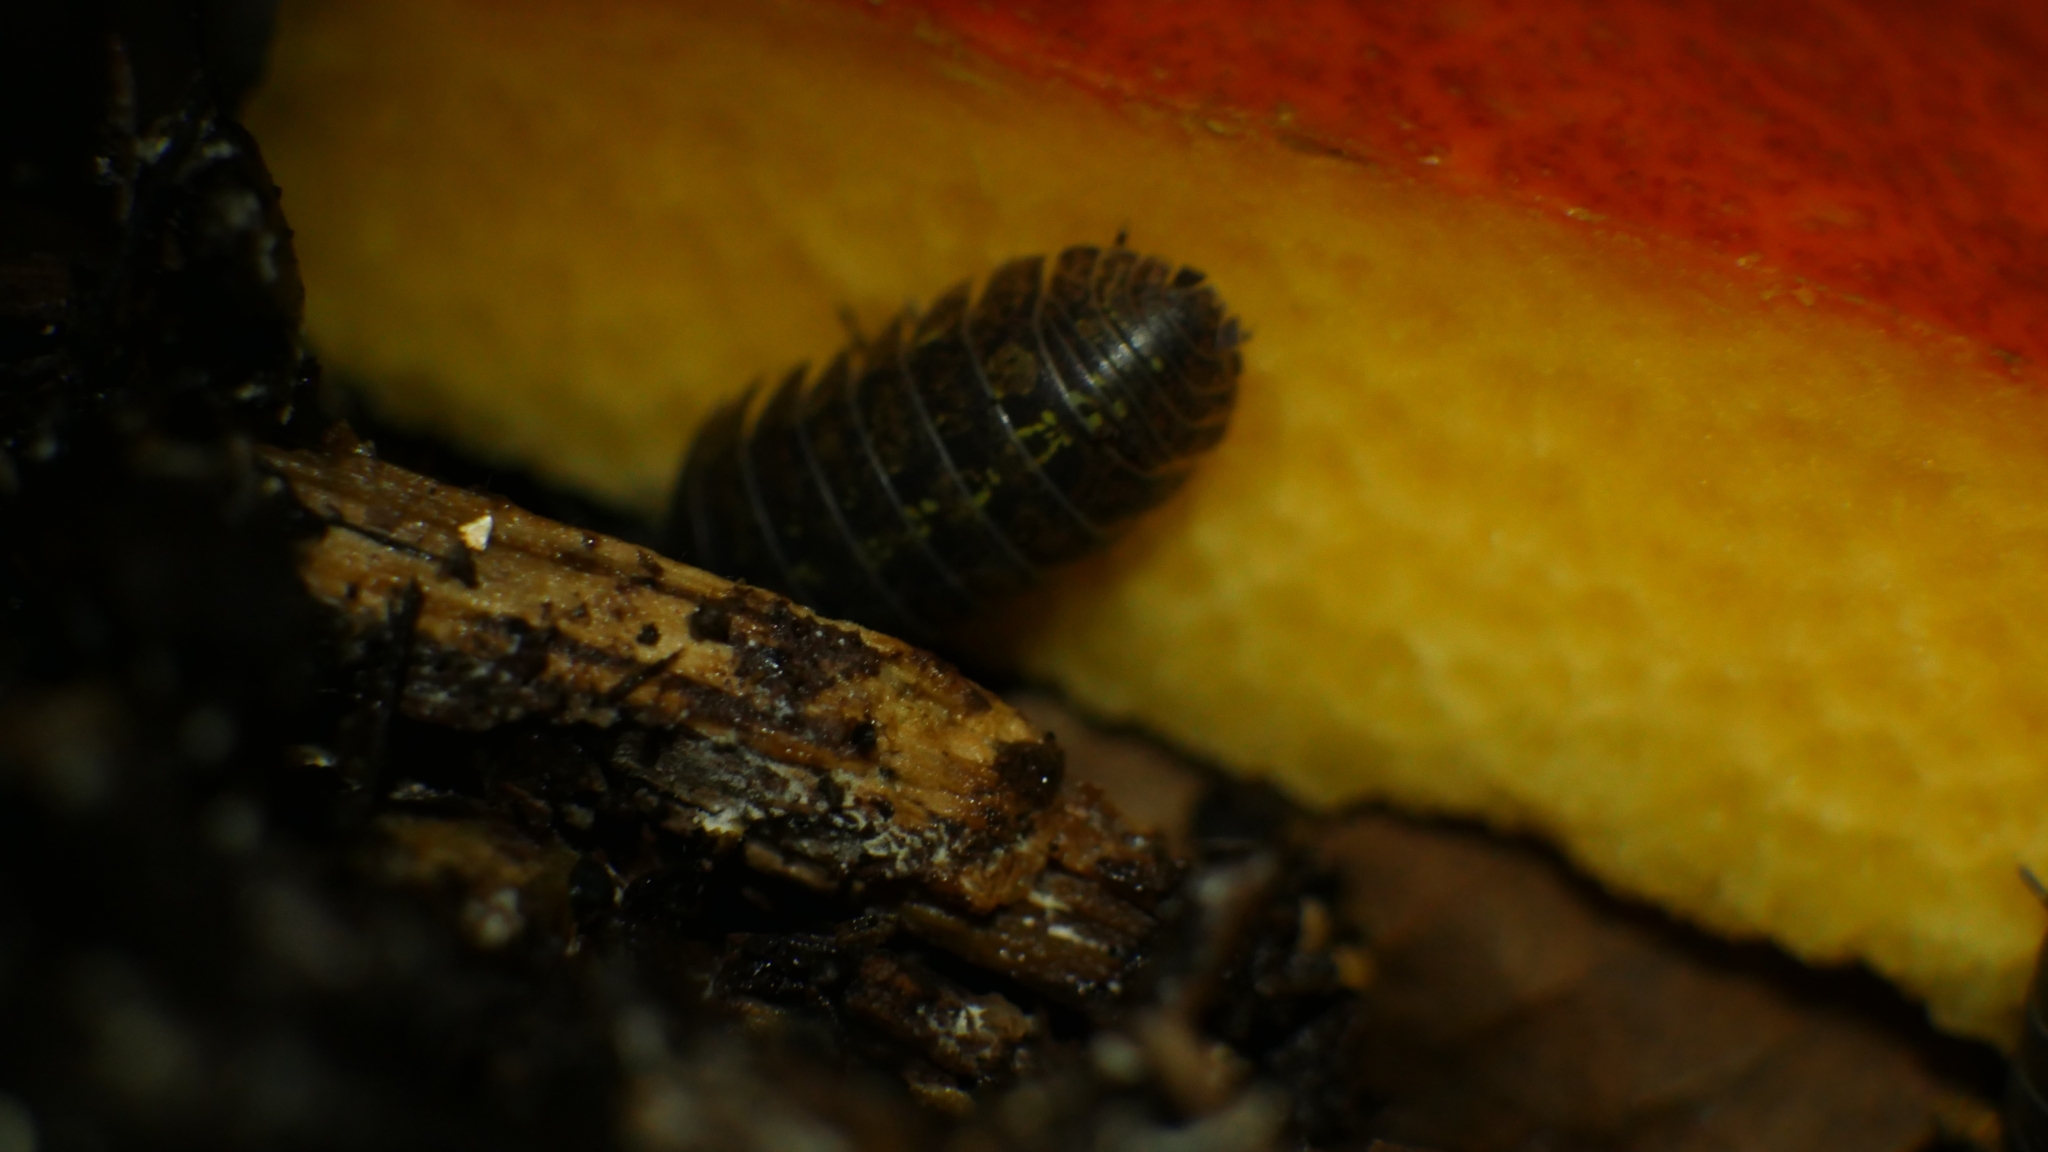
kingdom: Animalia
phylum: Arthropoda
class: Malacostraca
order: Isopoda
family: Armadillidiidae
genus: Armadillidium
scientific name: Armadillidium vulgare
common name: Common pill woodlouse
